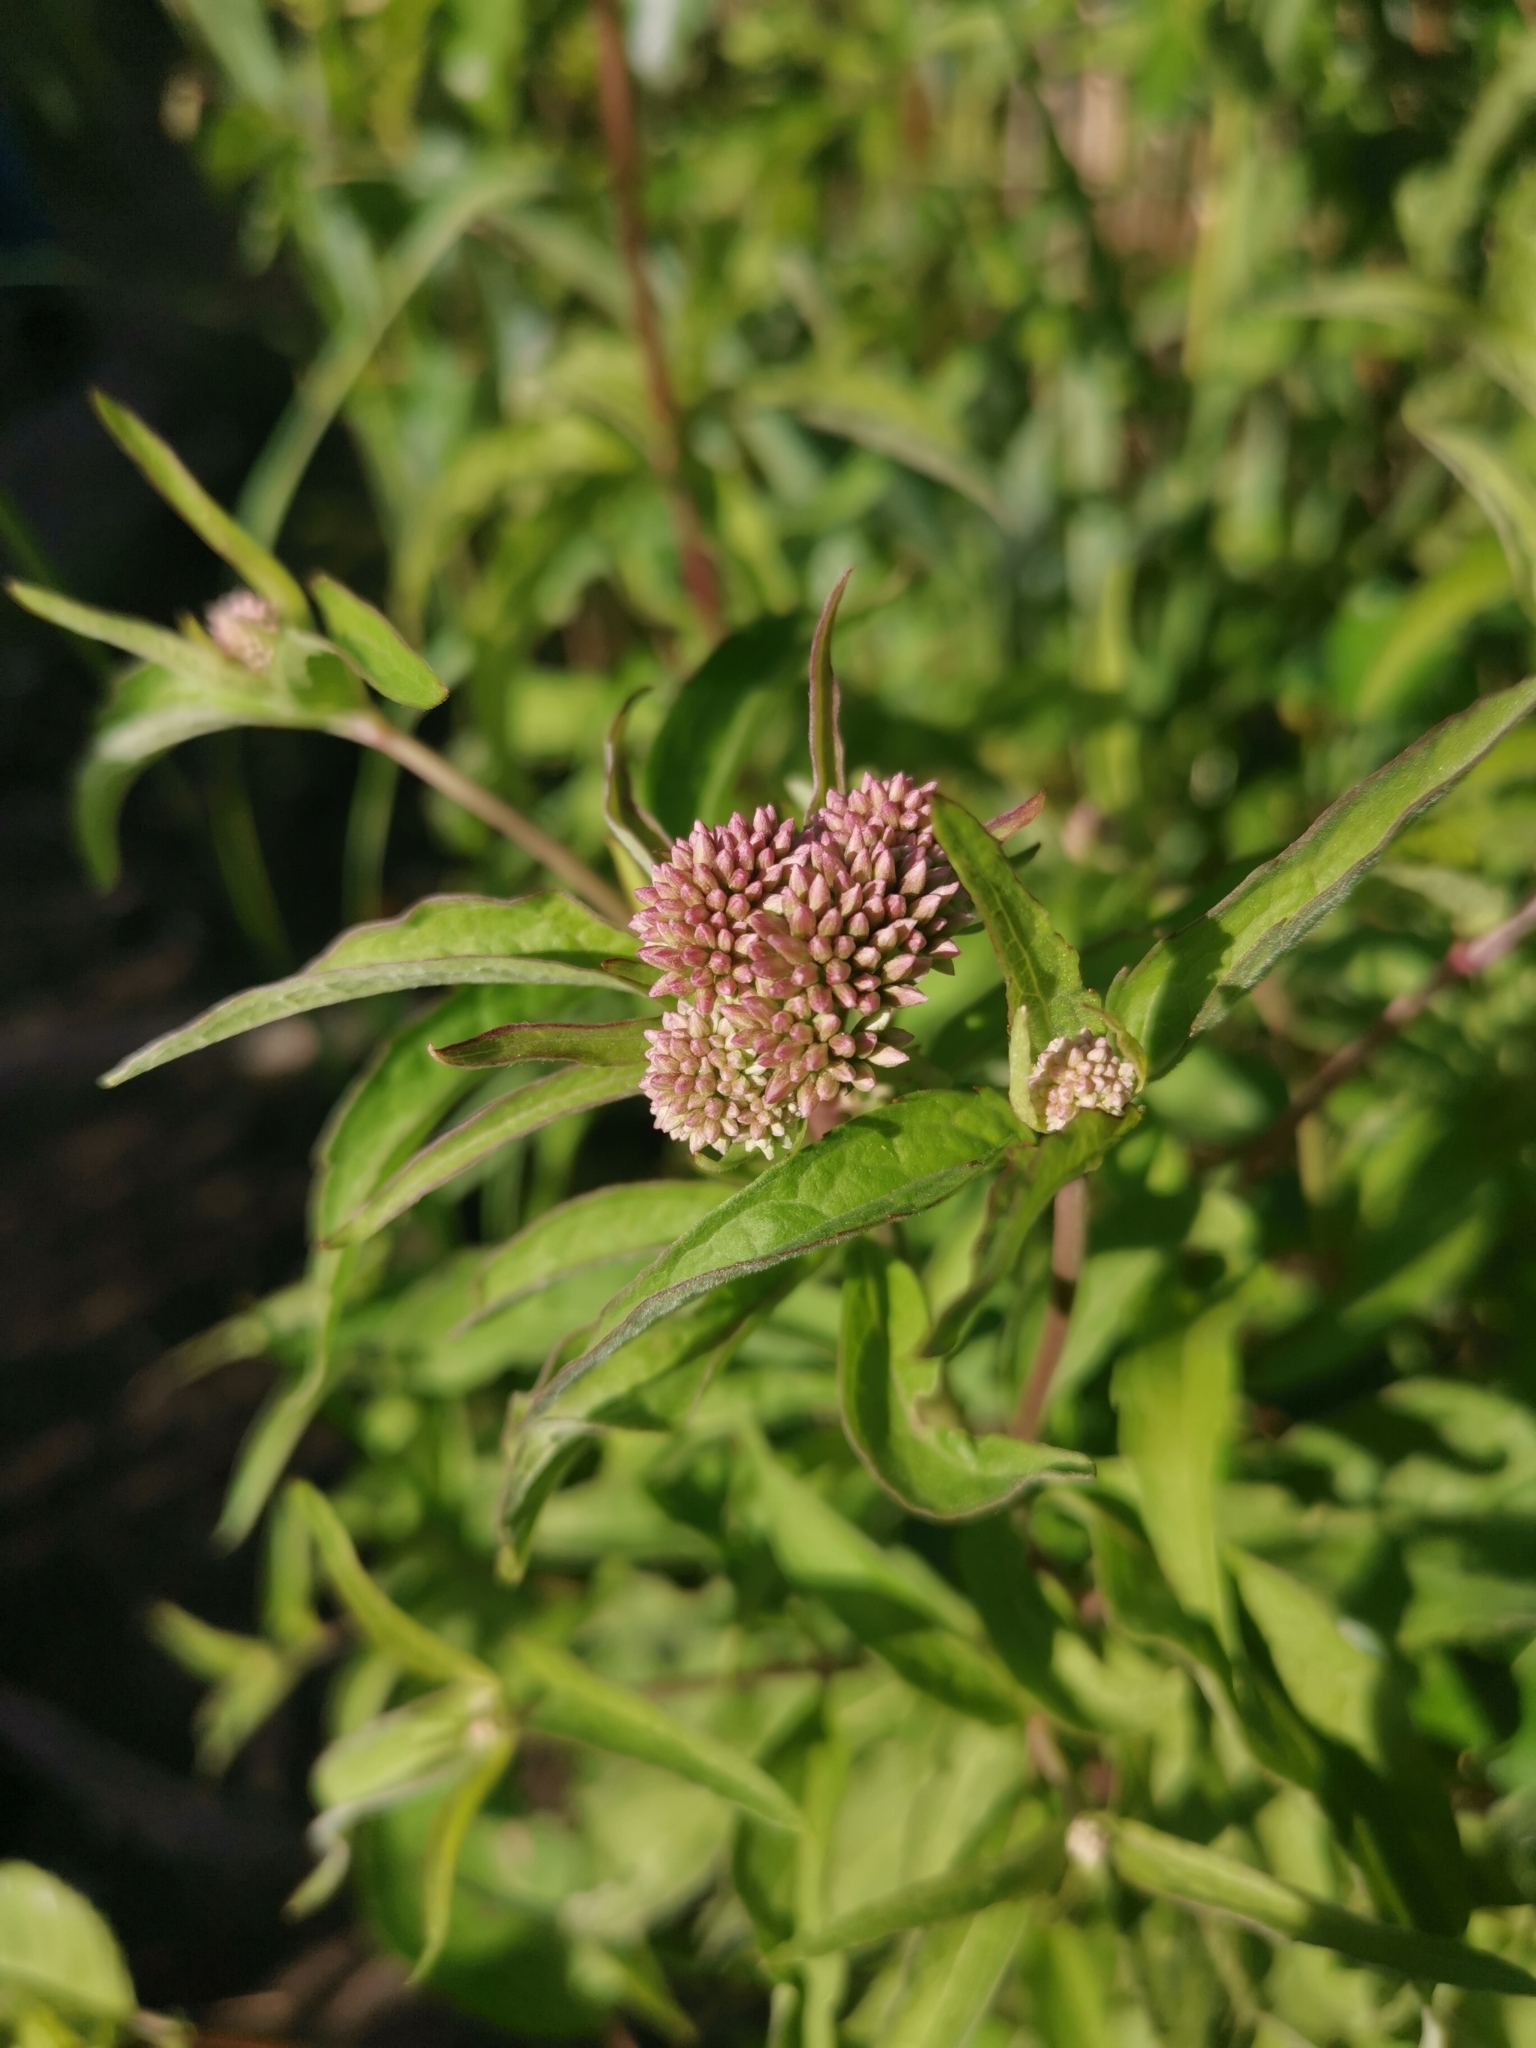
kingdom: Plantae
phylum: Tracheophyta
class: Magnoliopsida
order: Asterales
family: Asteraceae
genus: Eupatorium
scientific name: Eupatorium cannabinum
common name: Hemp-agrimony
